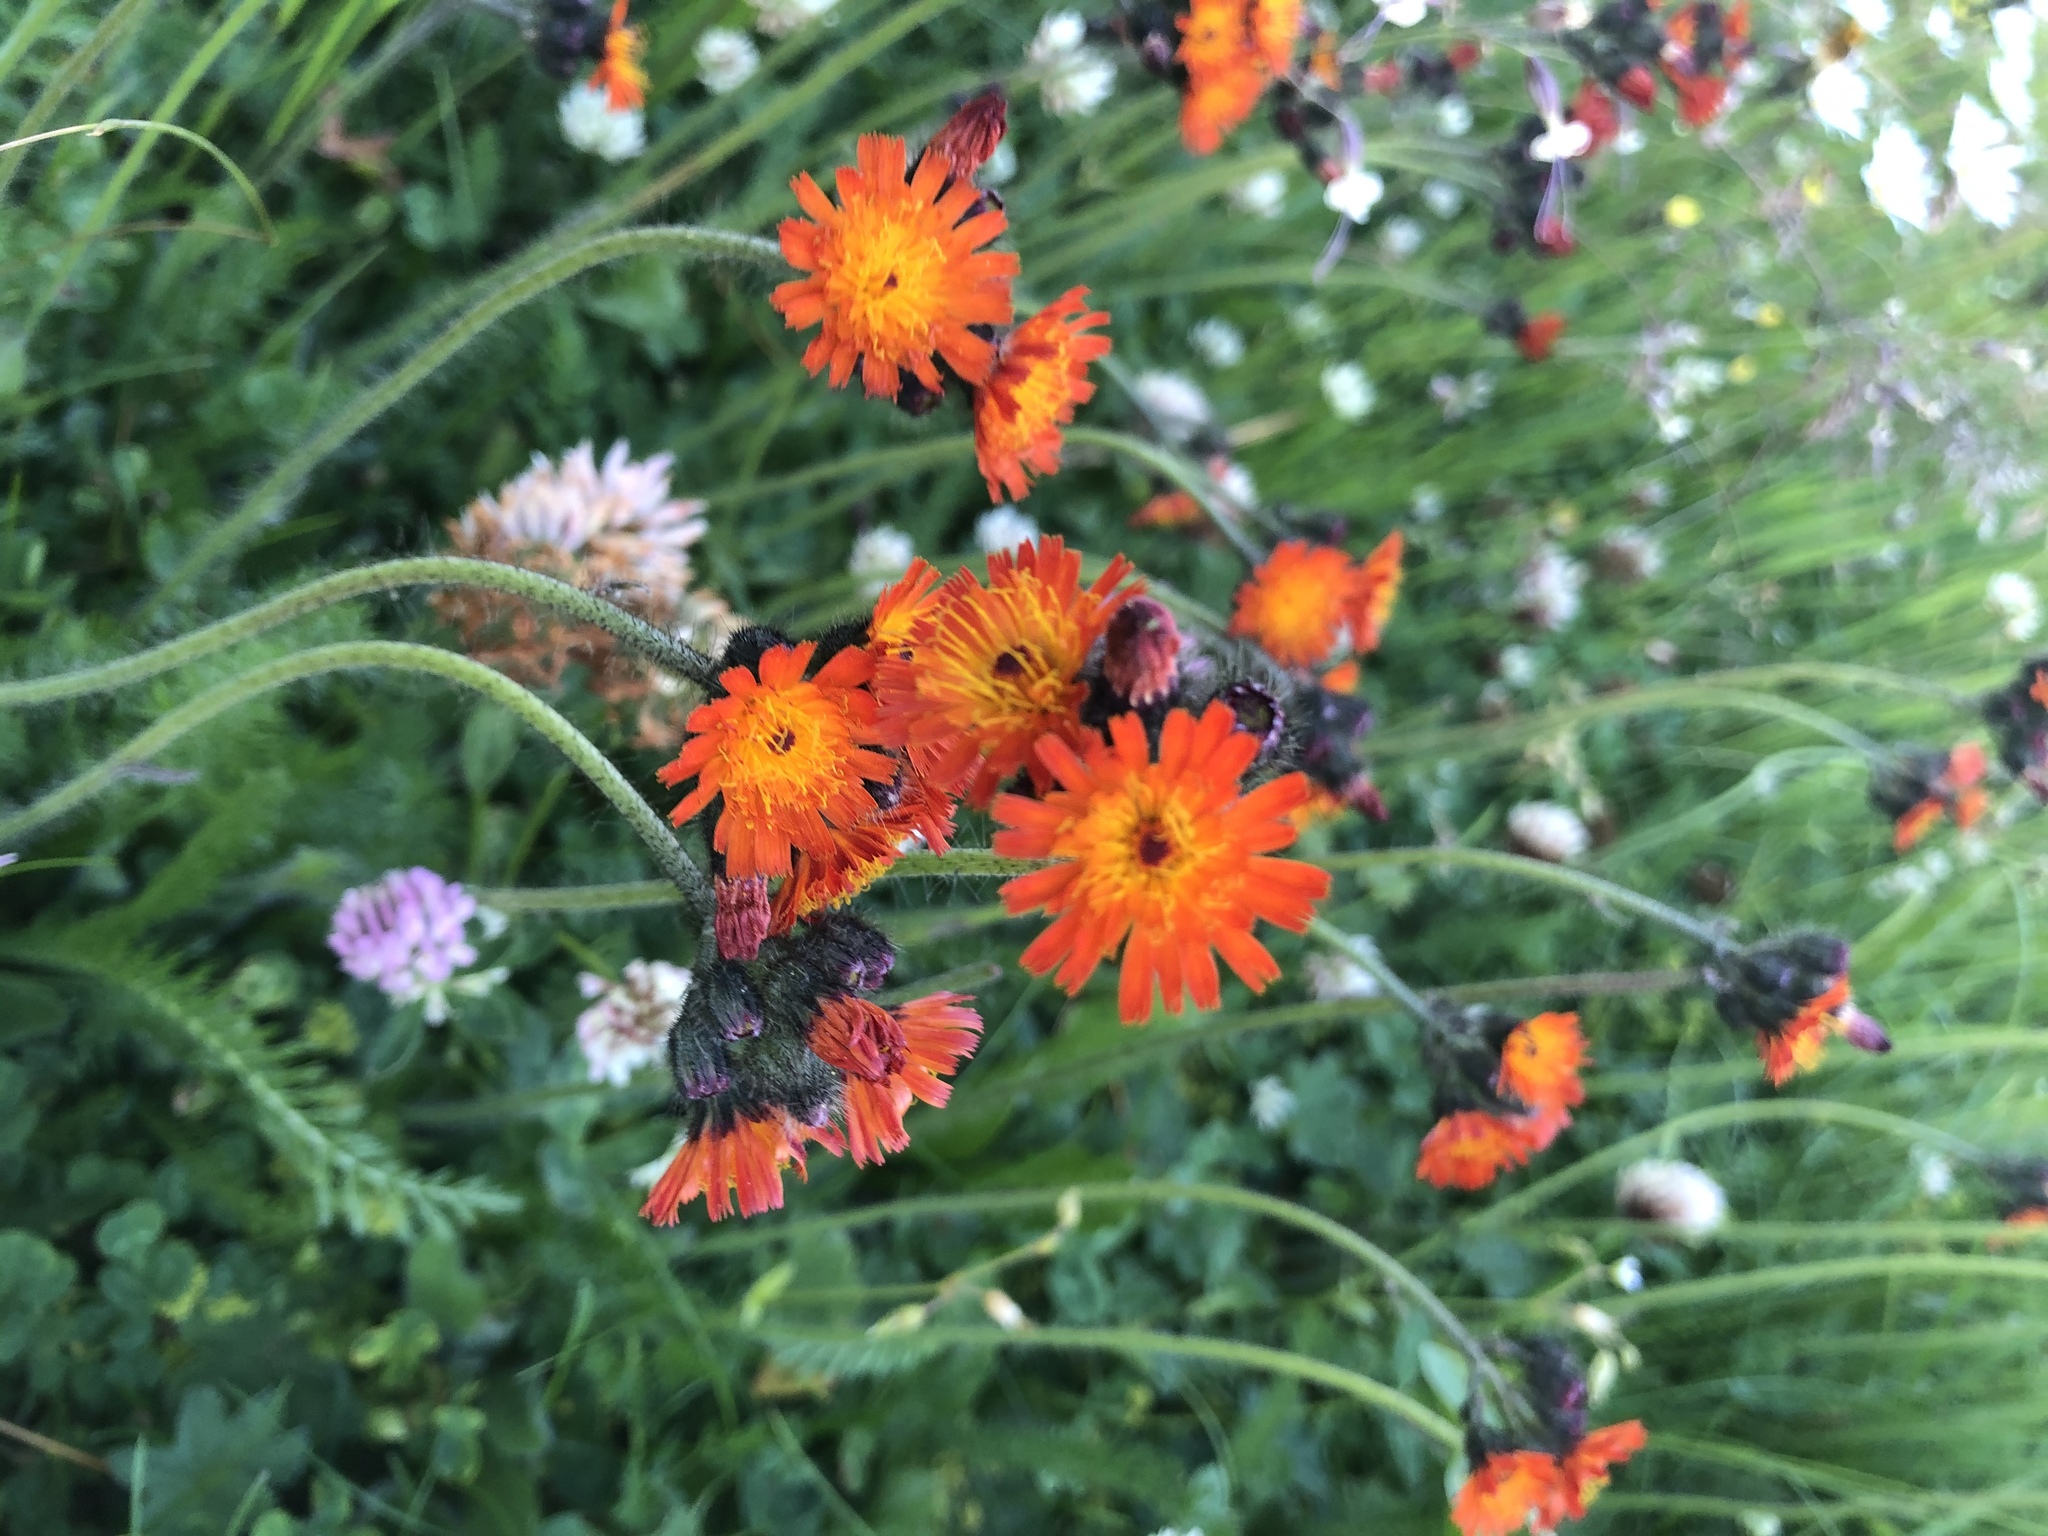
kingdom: Plantae
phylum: Tracheophyta
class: Magnoliopsida
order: Asterales
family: Asteraceae
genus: Pilosella
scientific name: Pilosella aurantiaca
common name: Fox-and-cubs
